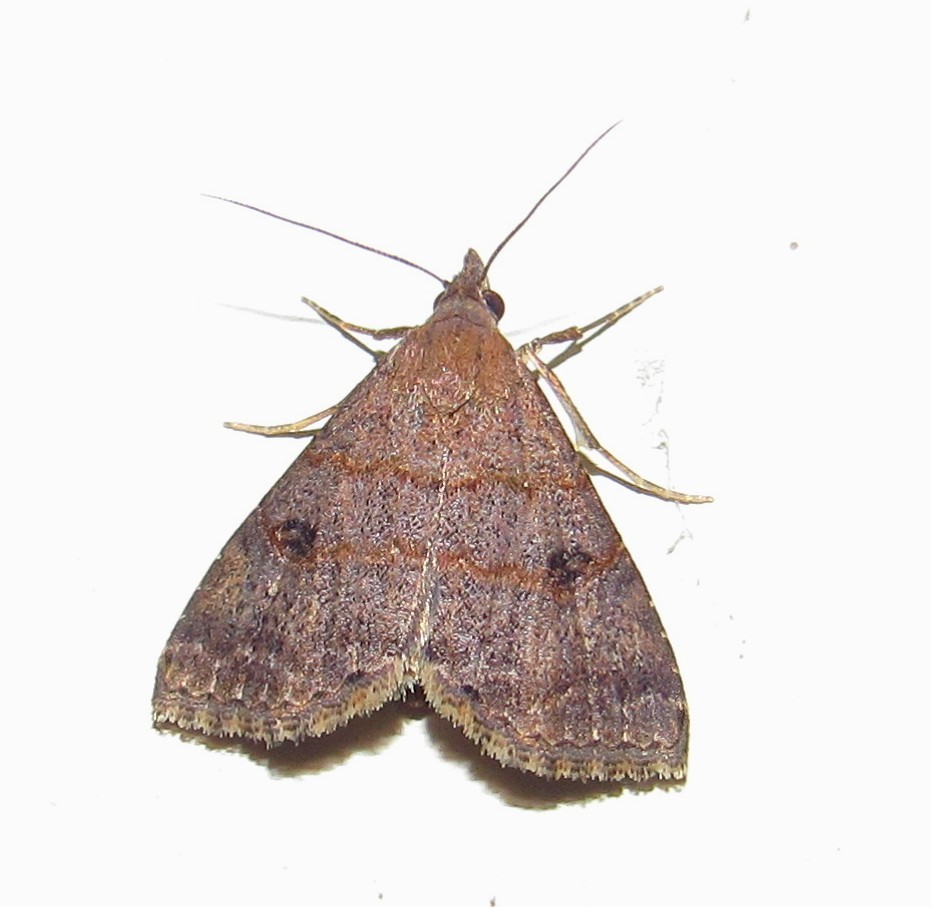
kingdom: Animalia
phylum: Arthropoda
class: Insecta
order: Lepidoptera
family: Noctuidae
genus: Hormoschista
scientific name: Hormoschista latipalpis
